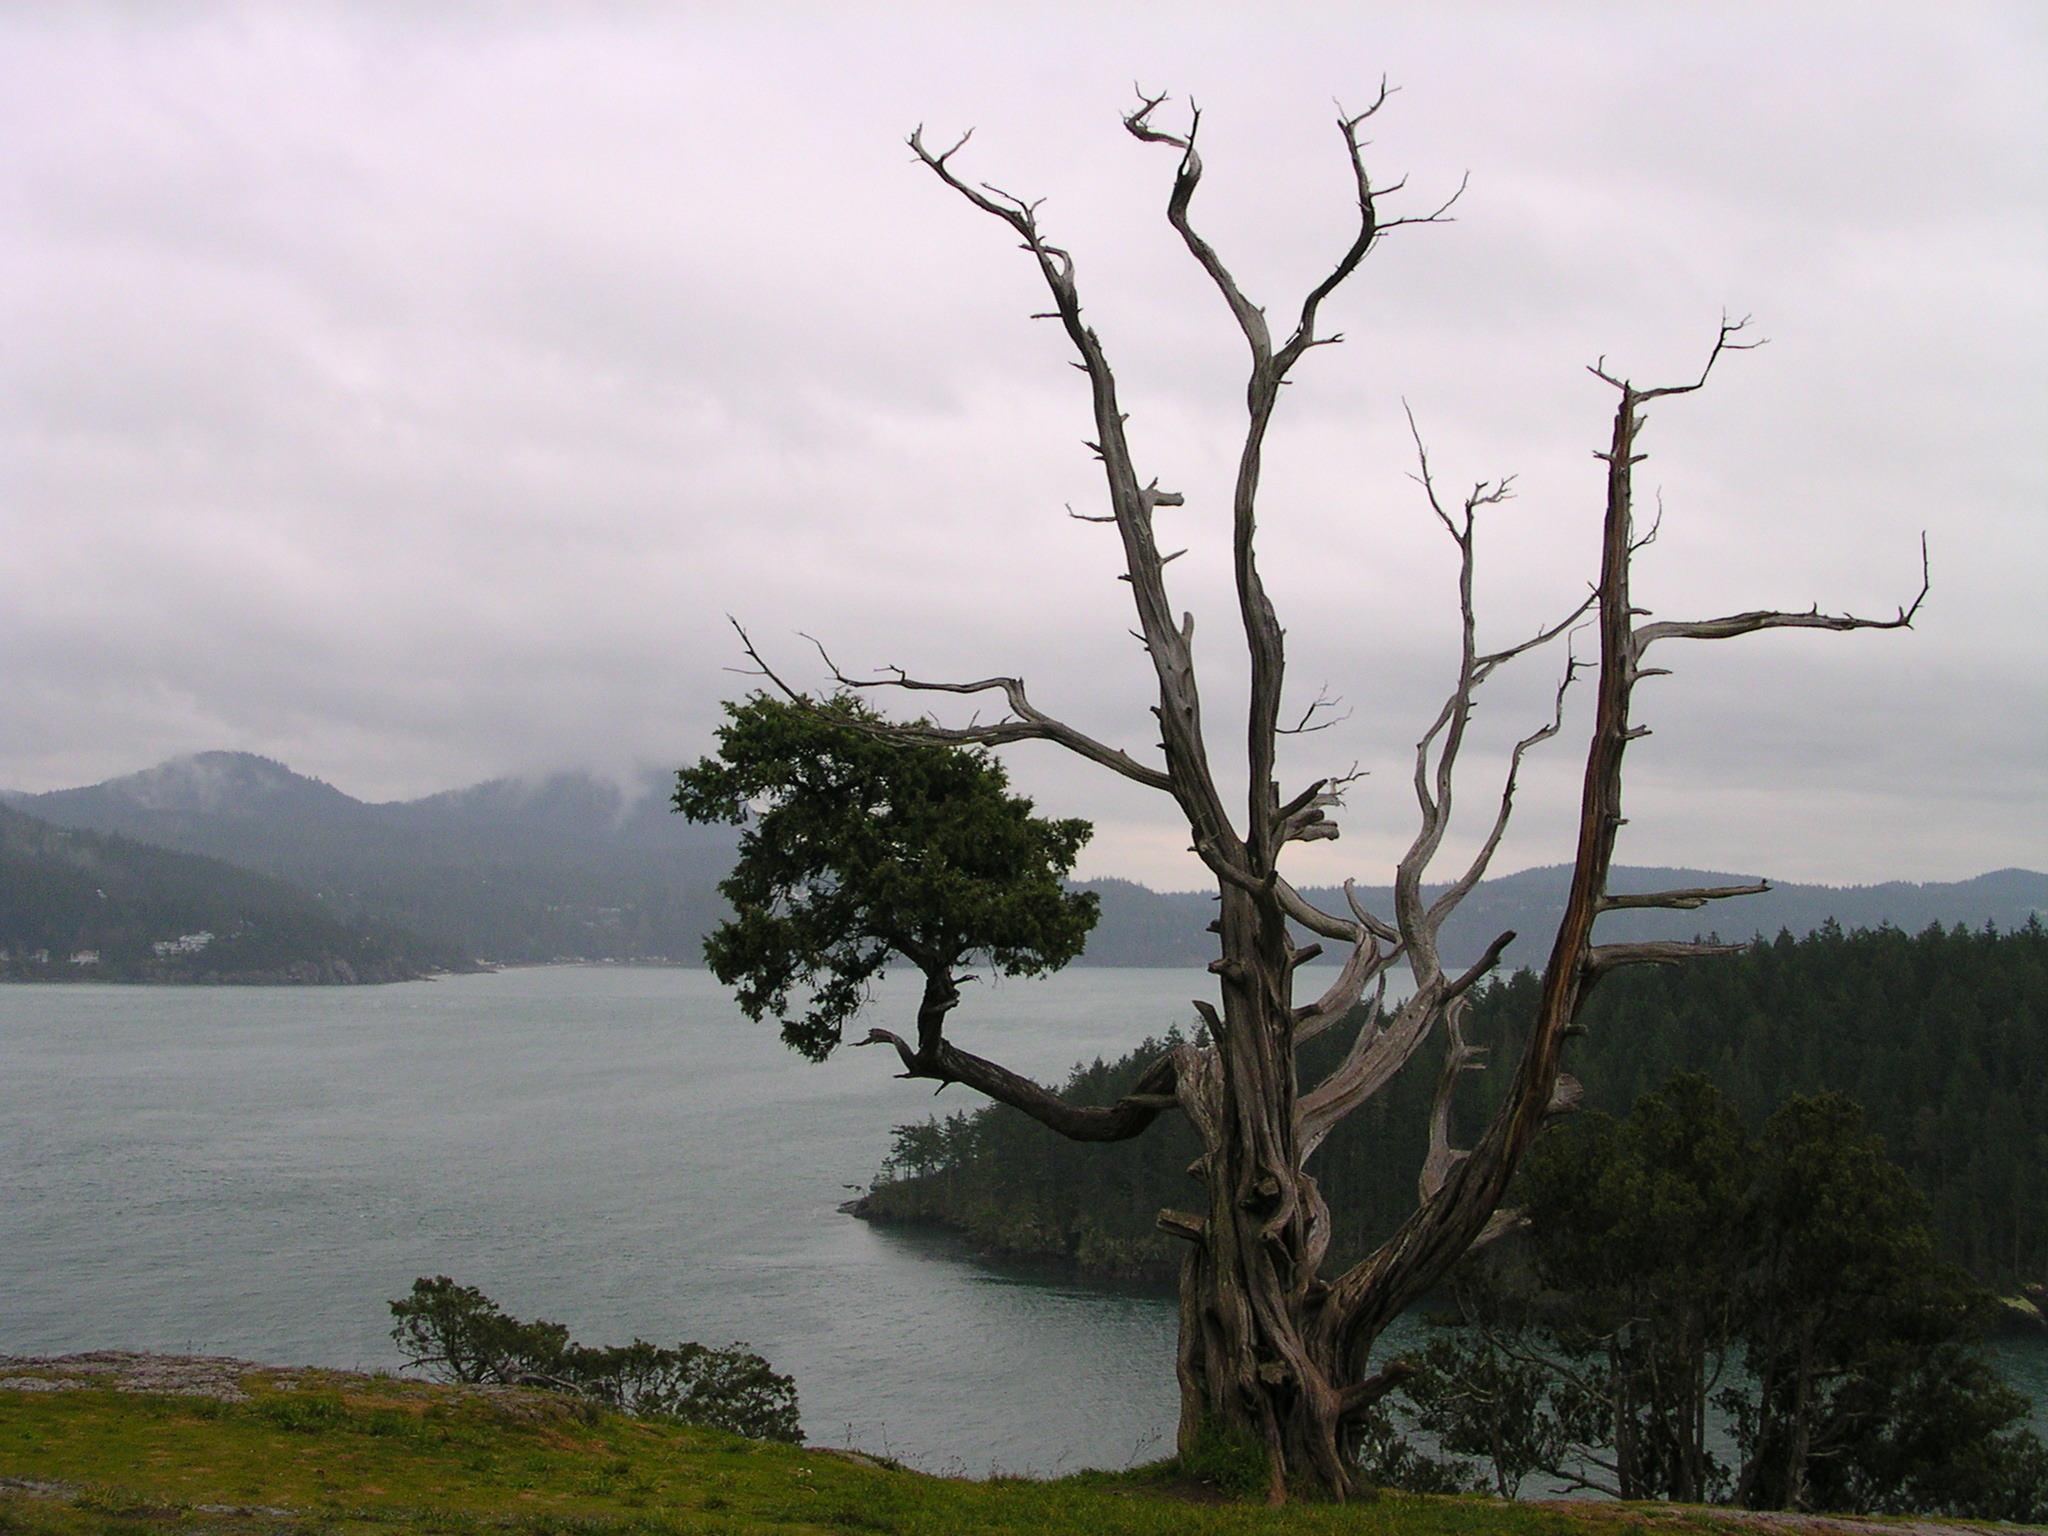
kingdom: Plantae
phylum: Tracheophyta
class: Pinopsida
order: Pinales
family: Cupressaceae
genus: Juniperus
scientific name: Juniperus scopulorum
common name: Rocky mountain juniper
